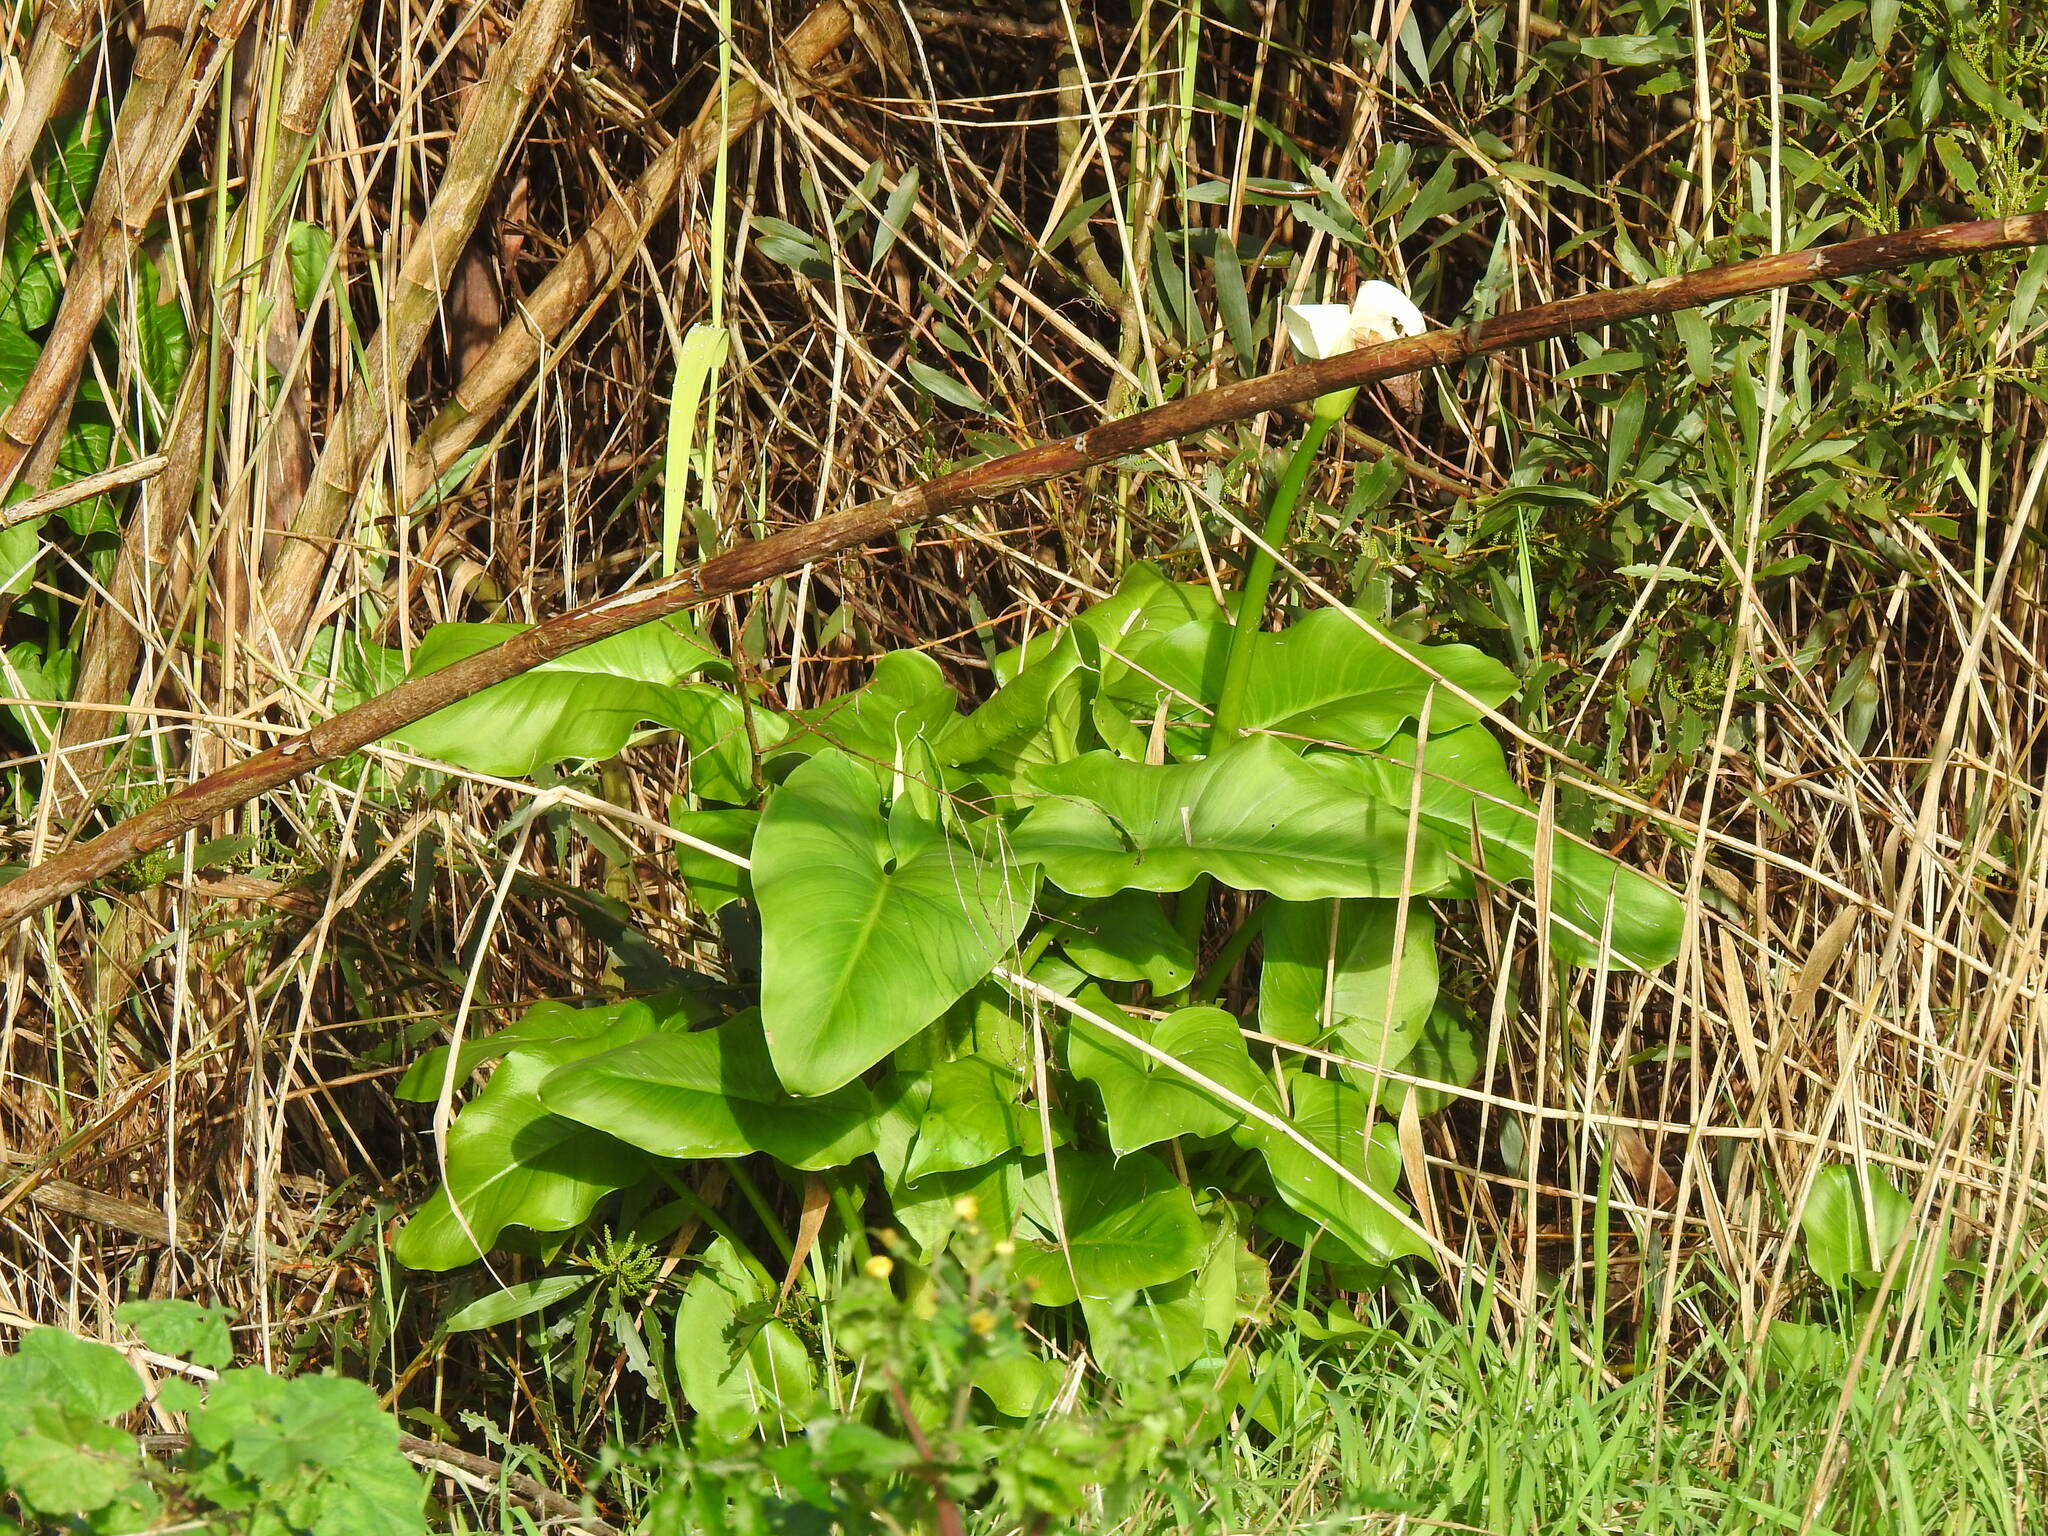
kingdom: Plantae
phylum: Tracheophyta
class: Liliopsida
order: Alismatales
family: Araceae
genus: Zantedeschia
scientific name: Zantedeschia aethiopica
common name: Altar-lily
